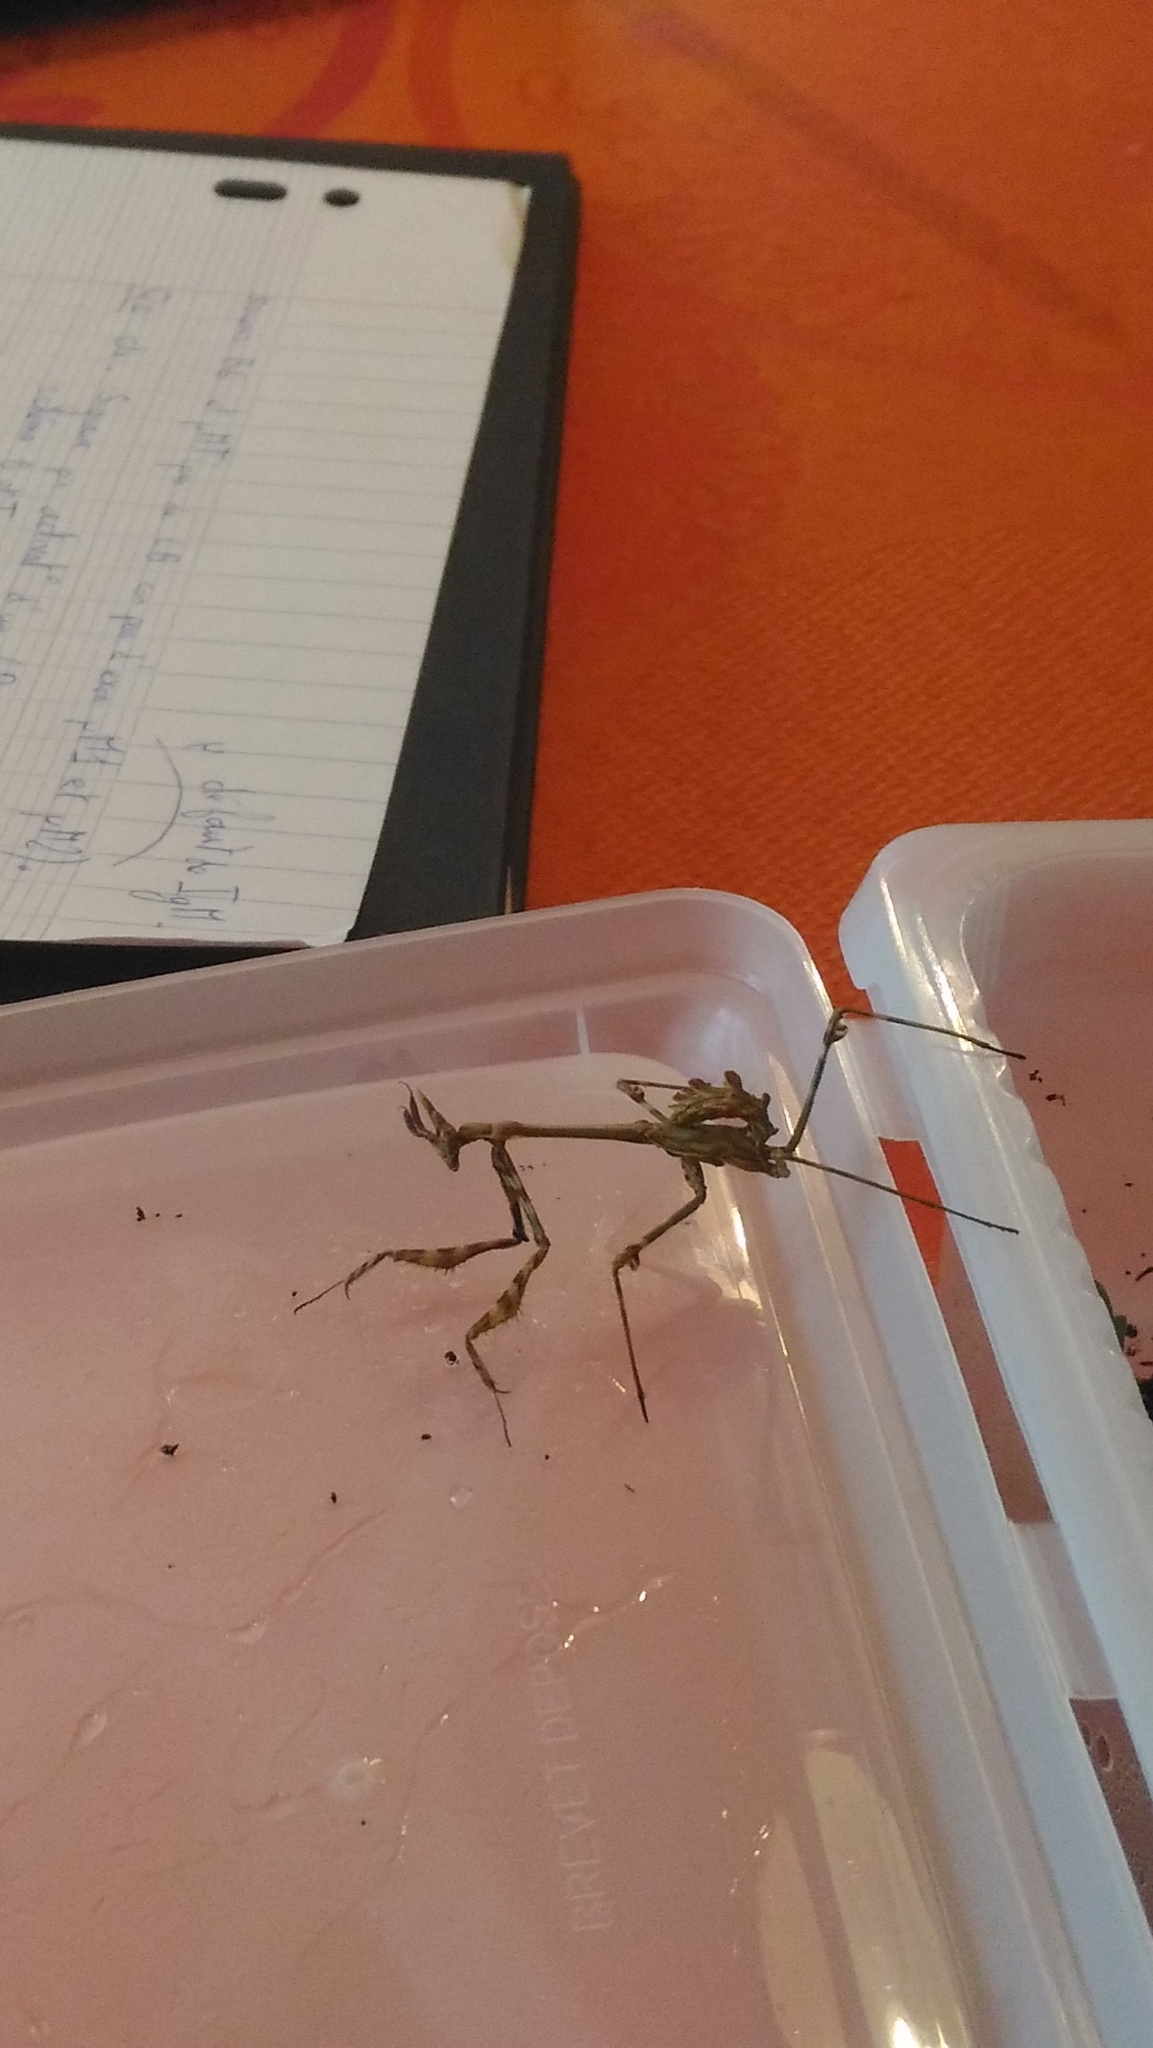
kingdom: Animalia
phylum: Arthropoda
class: Insecta
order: Mantodea
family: Empusidae
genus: Empusa
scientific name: Empusa pennata
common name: Conehead mantis
